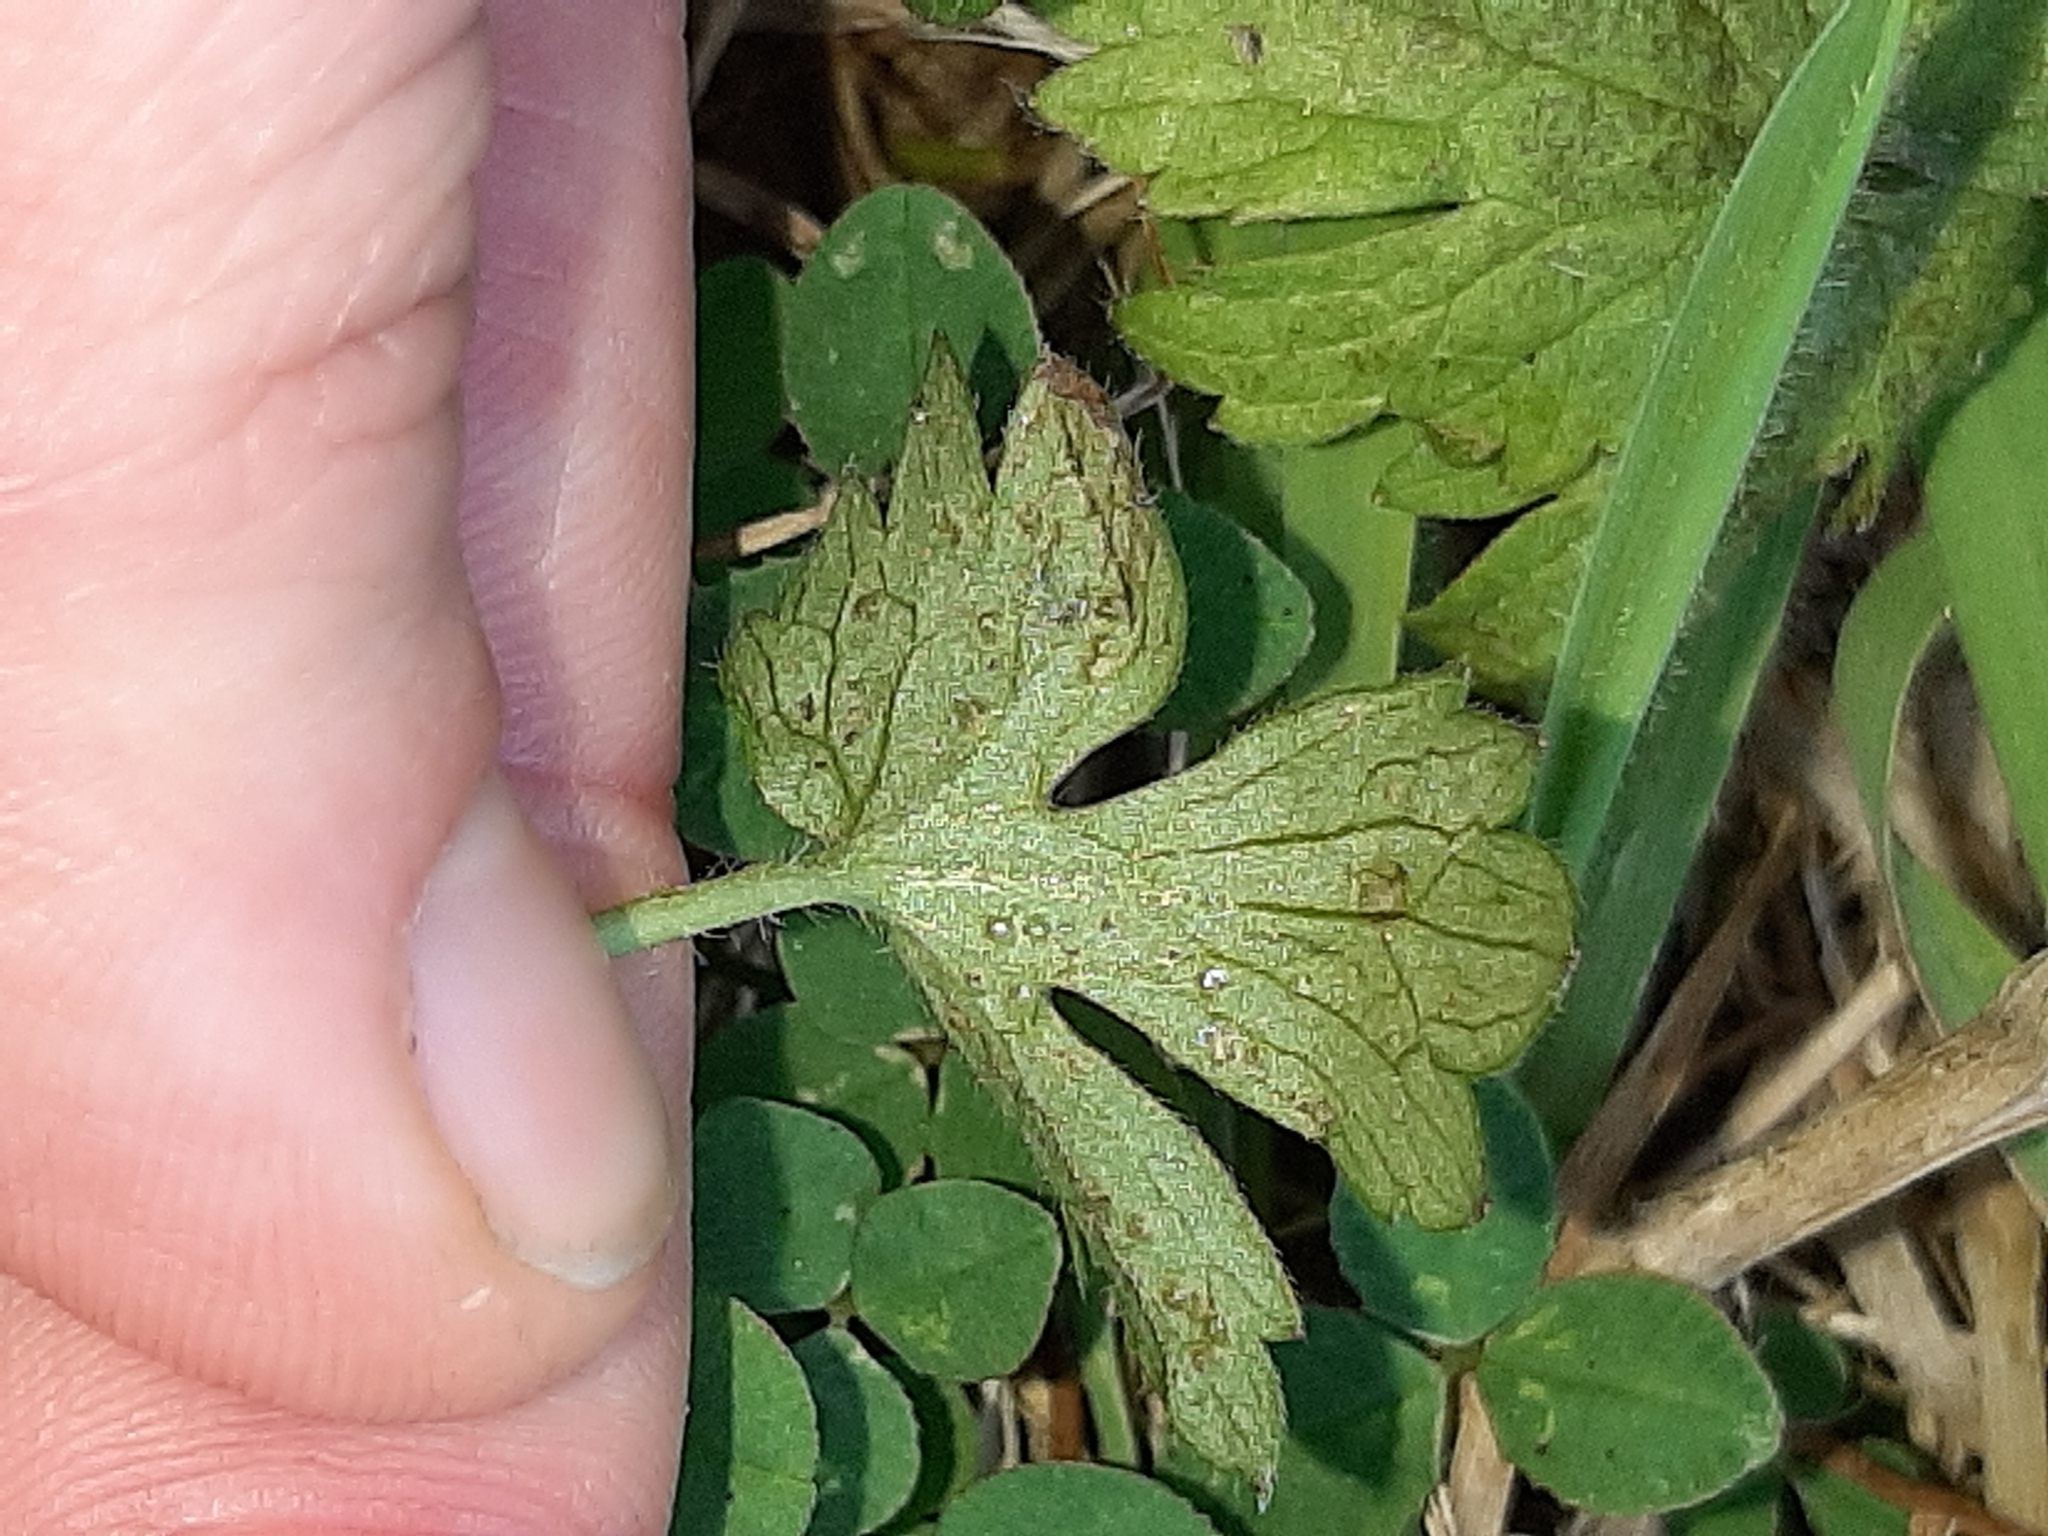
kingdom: Plantae
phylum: Tracheophyta
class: Magnoliopsida
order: Ranunculales
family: Ranunculaceae
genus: Ranunculus
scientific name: Ranunculus repens
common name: Creeping buttercup
